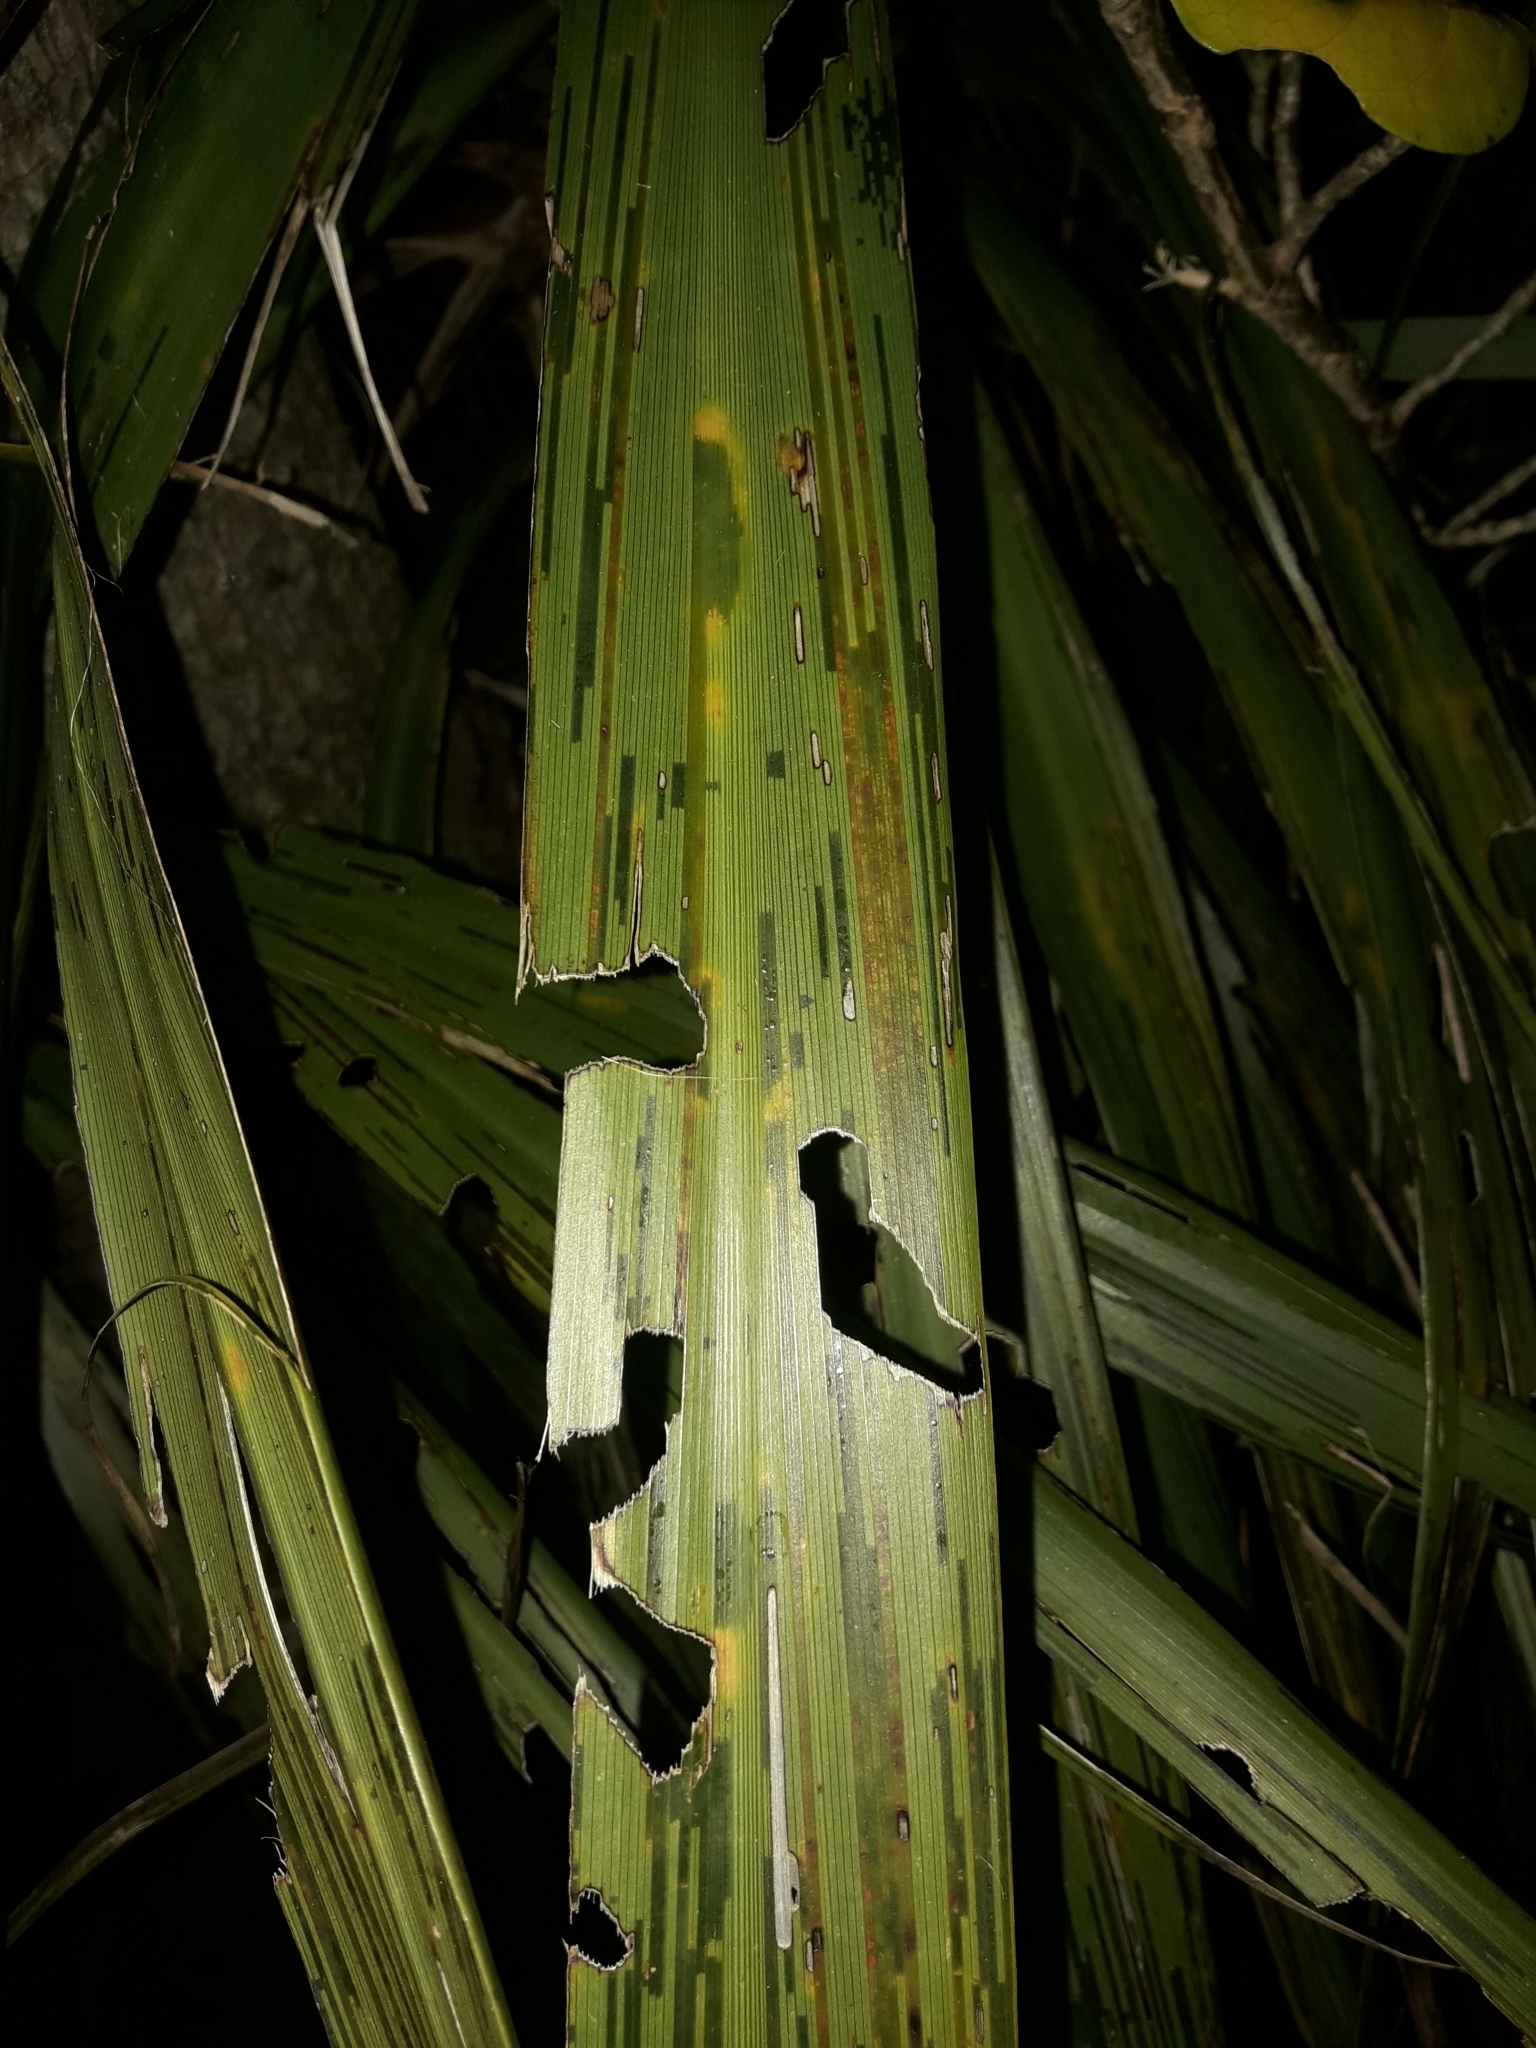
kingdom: Animalia
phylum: Arthropoda
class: Insecta
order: Lepidoptera
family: Geometridae
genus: Epiphryne
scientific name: Epiphryne verriculata
